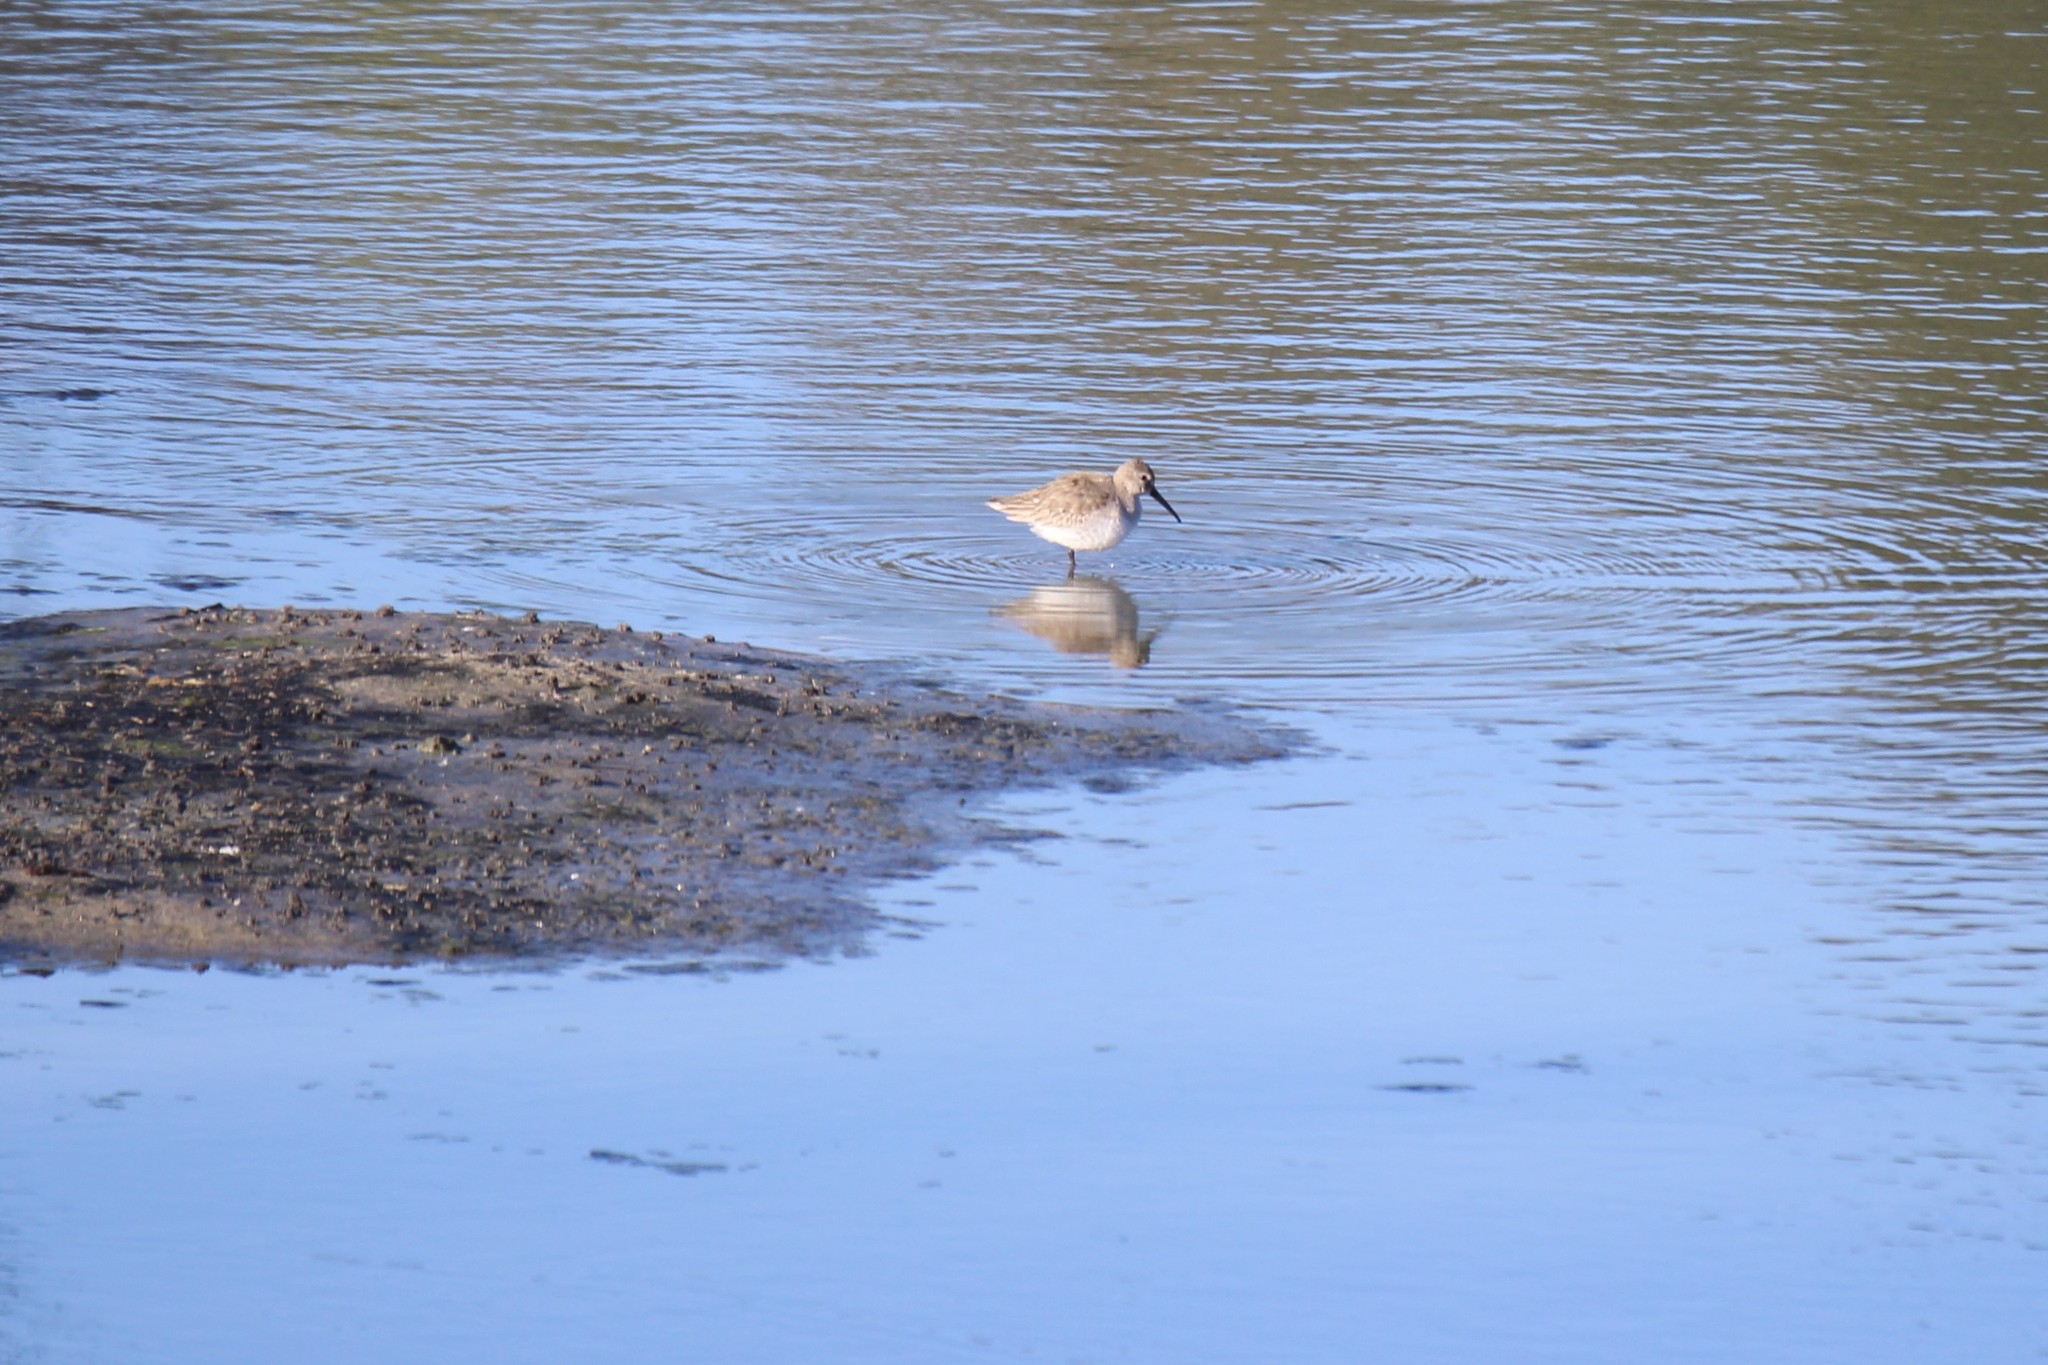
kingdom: Animalia
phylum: Chordata
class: Aves
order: Charadriiformes
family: Scolopacidae
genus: Calidris
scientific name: Calidris alpina
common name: Dunlin
